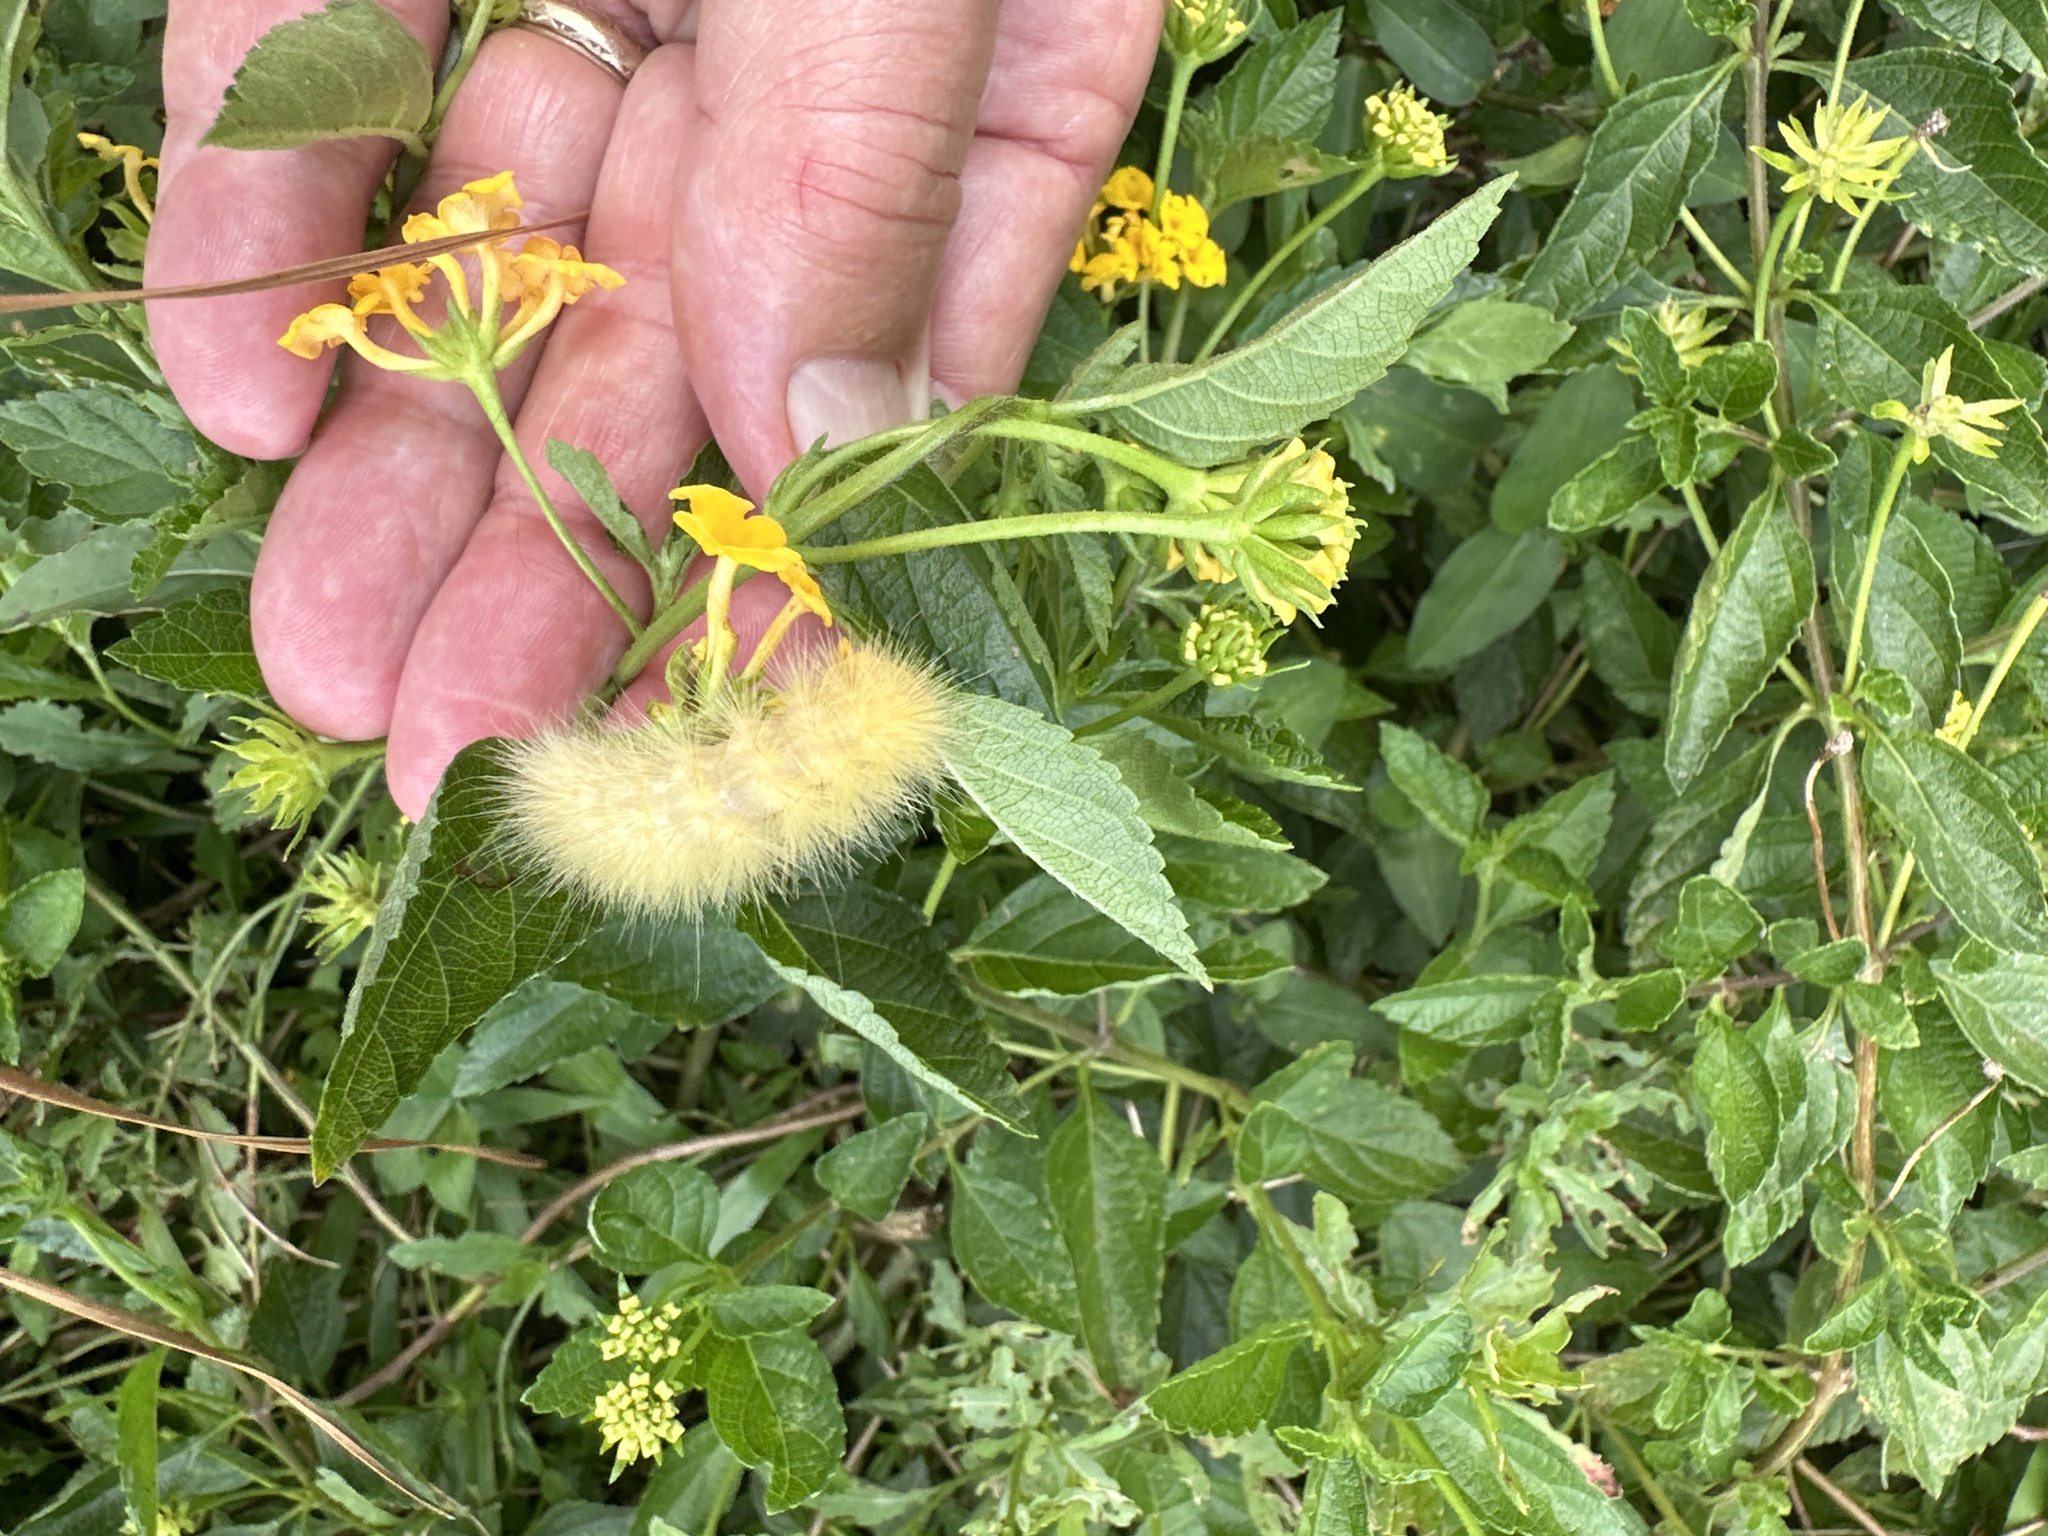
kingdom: Animalia
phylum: Arthropoda
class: Insecta
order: Lepidoptera
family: Erebidae
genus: Spilosoma
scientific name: Spilosoma virginica
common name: Virginia tiger moth
